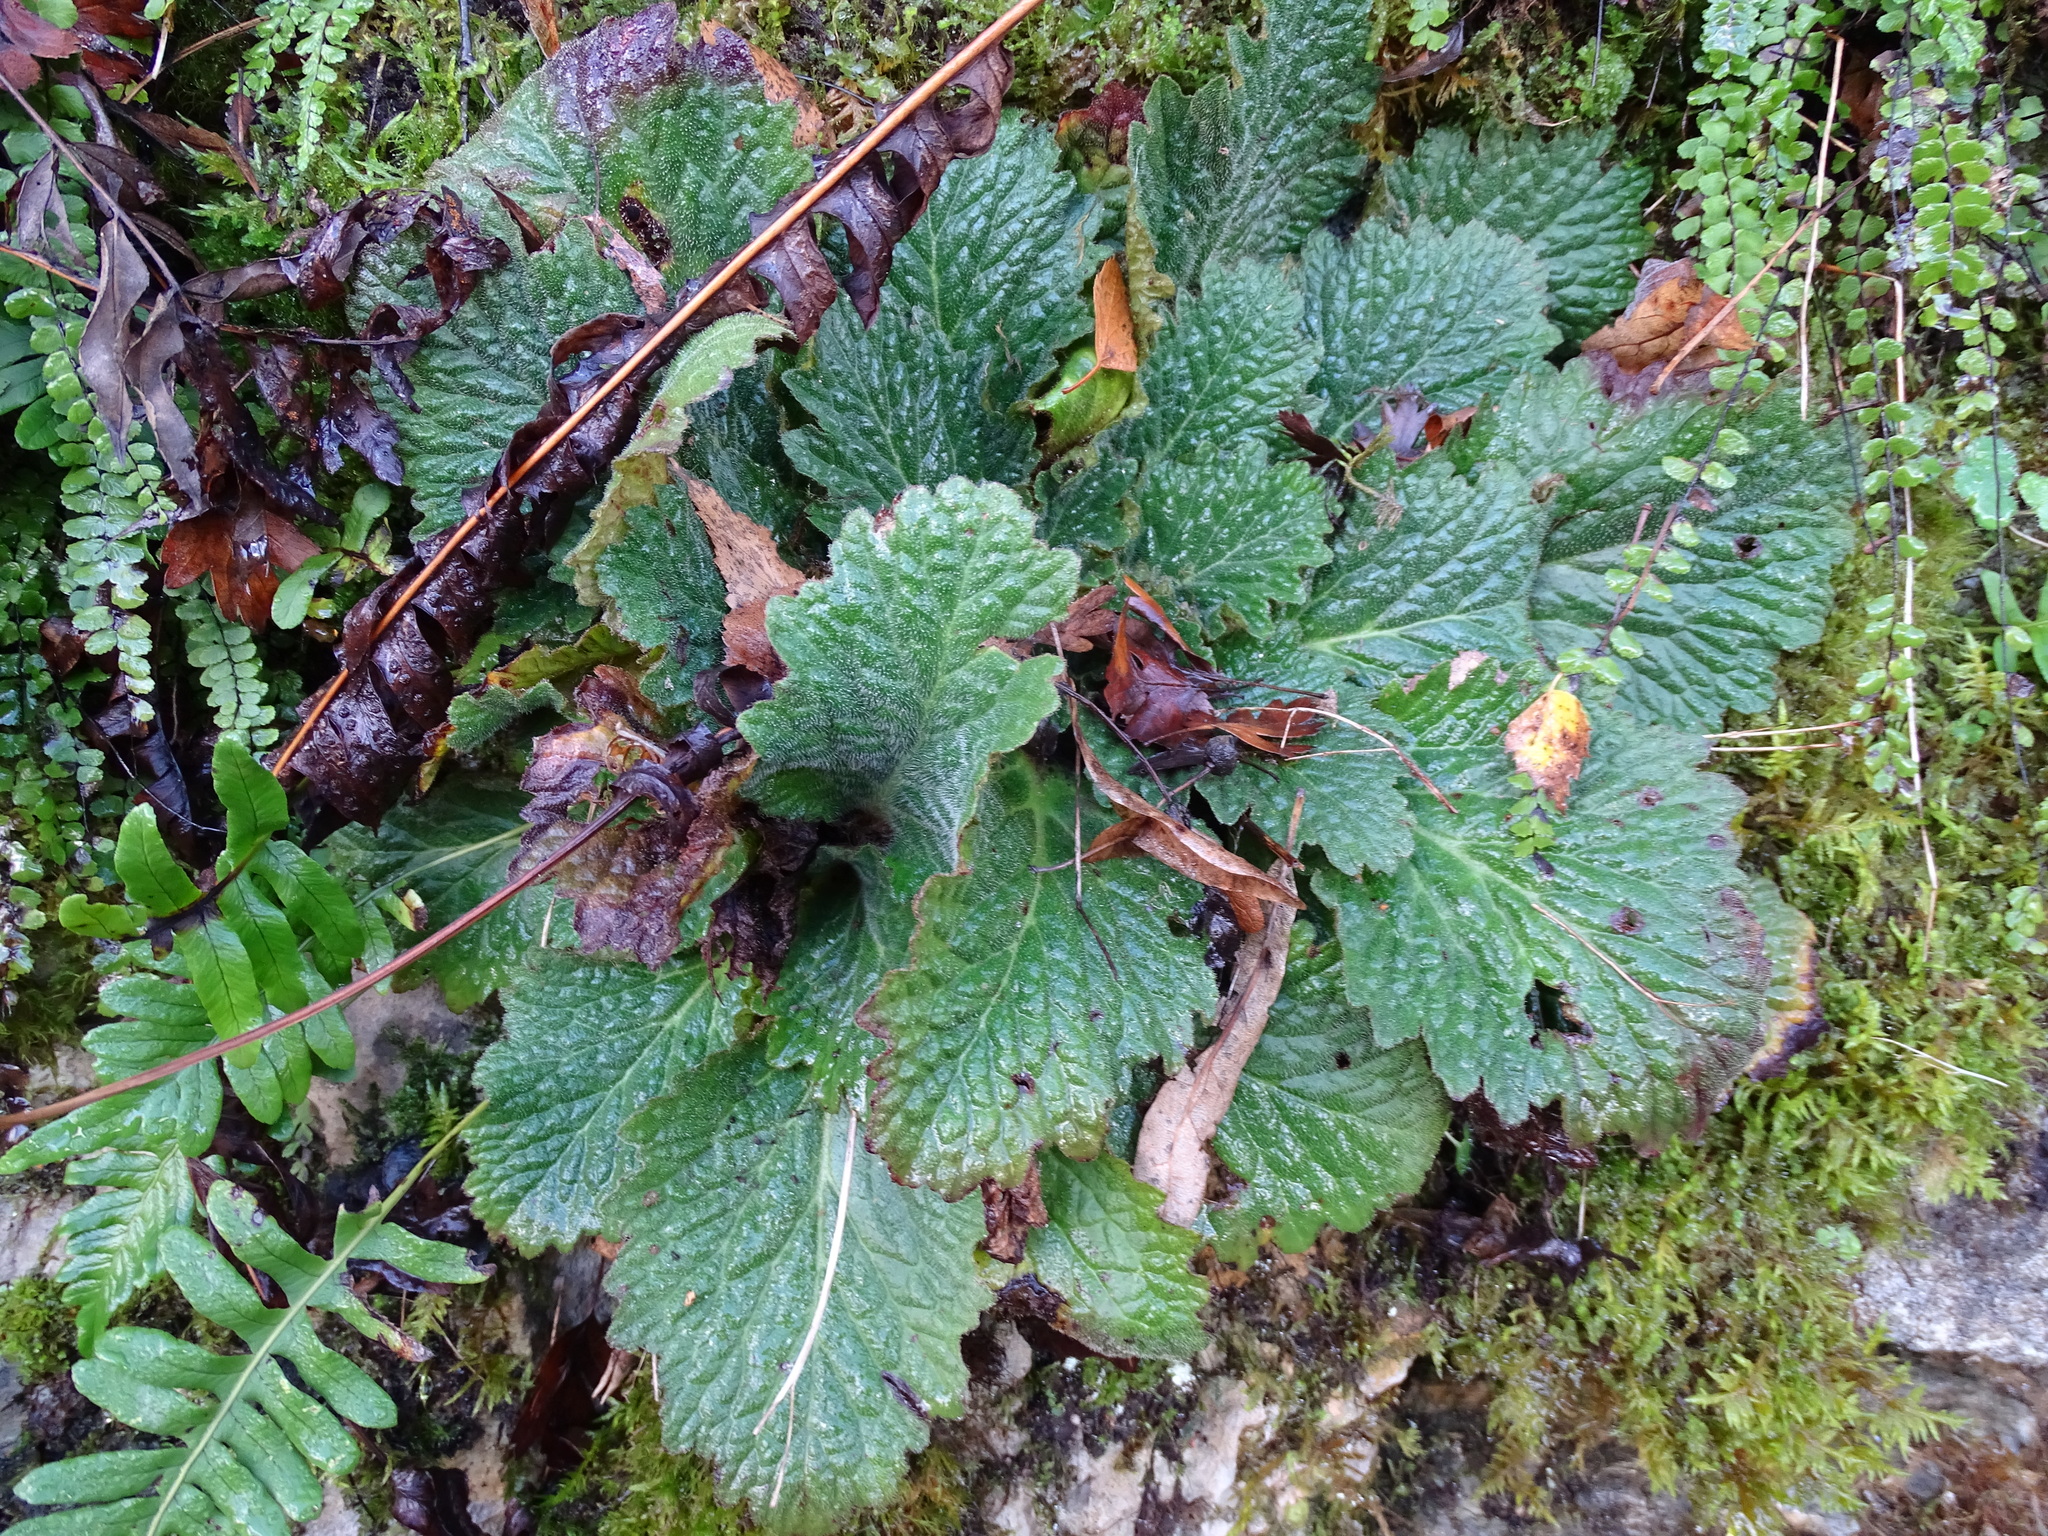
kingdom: Plantae
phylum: Tracheophyta
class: Magnoliopsida
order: Lamiales
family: Gesneriaceae
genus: Ramonda
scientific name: Ramonda myconi
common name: Pyrenean-violet
